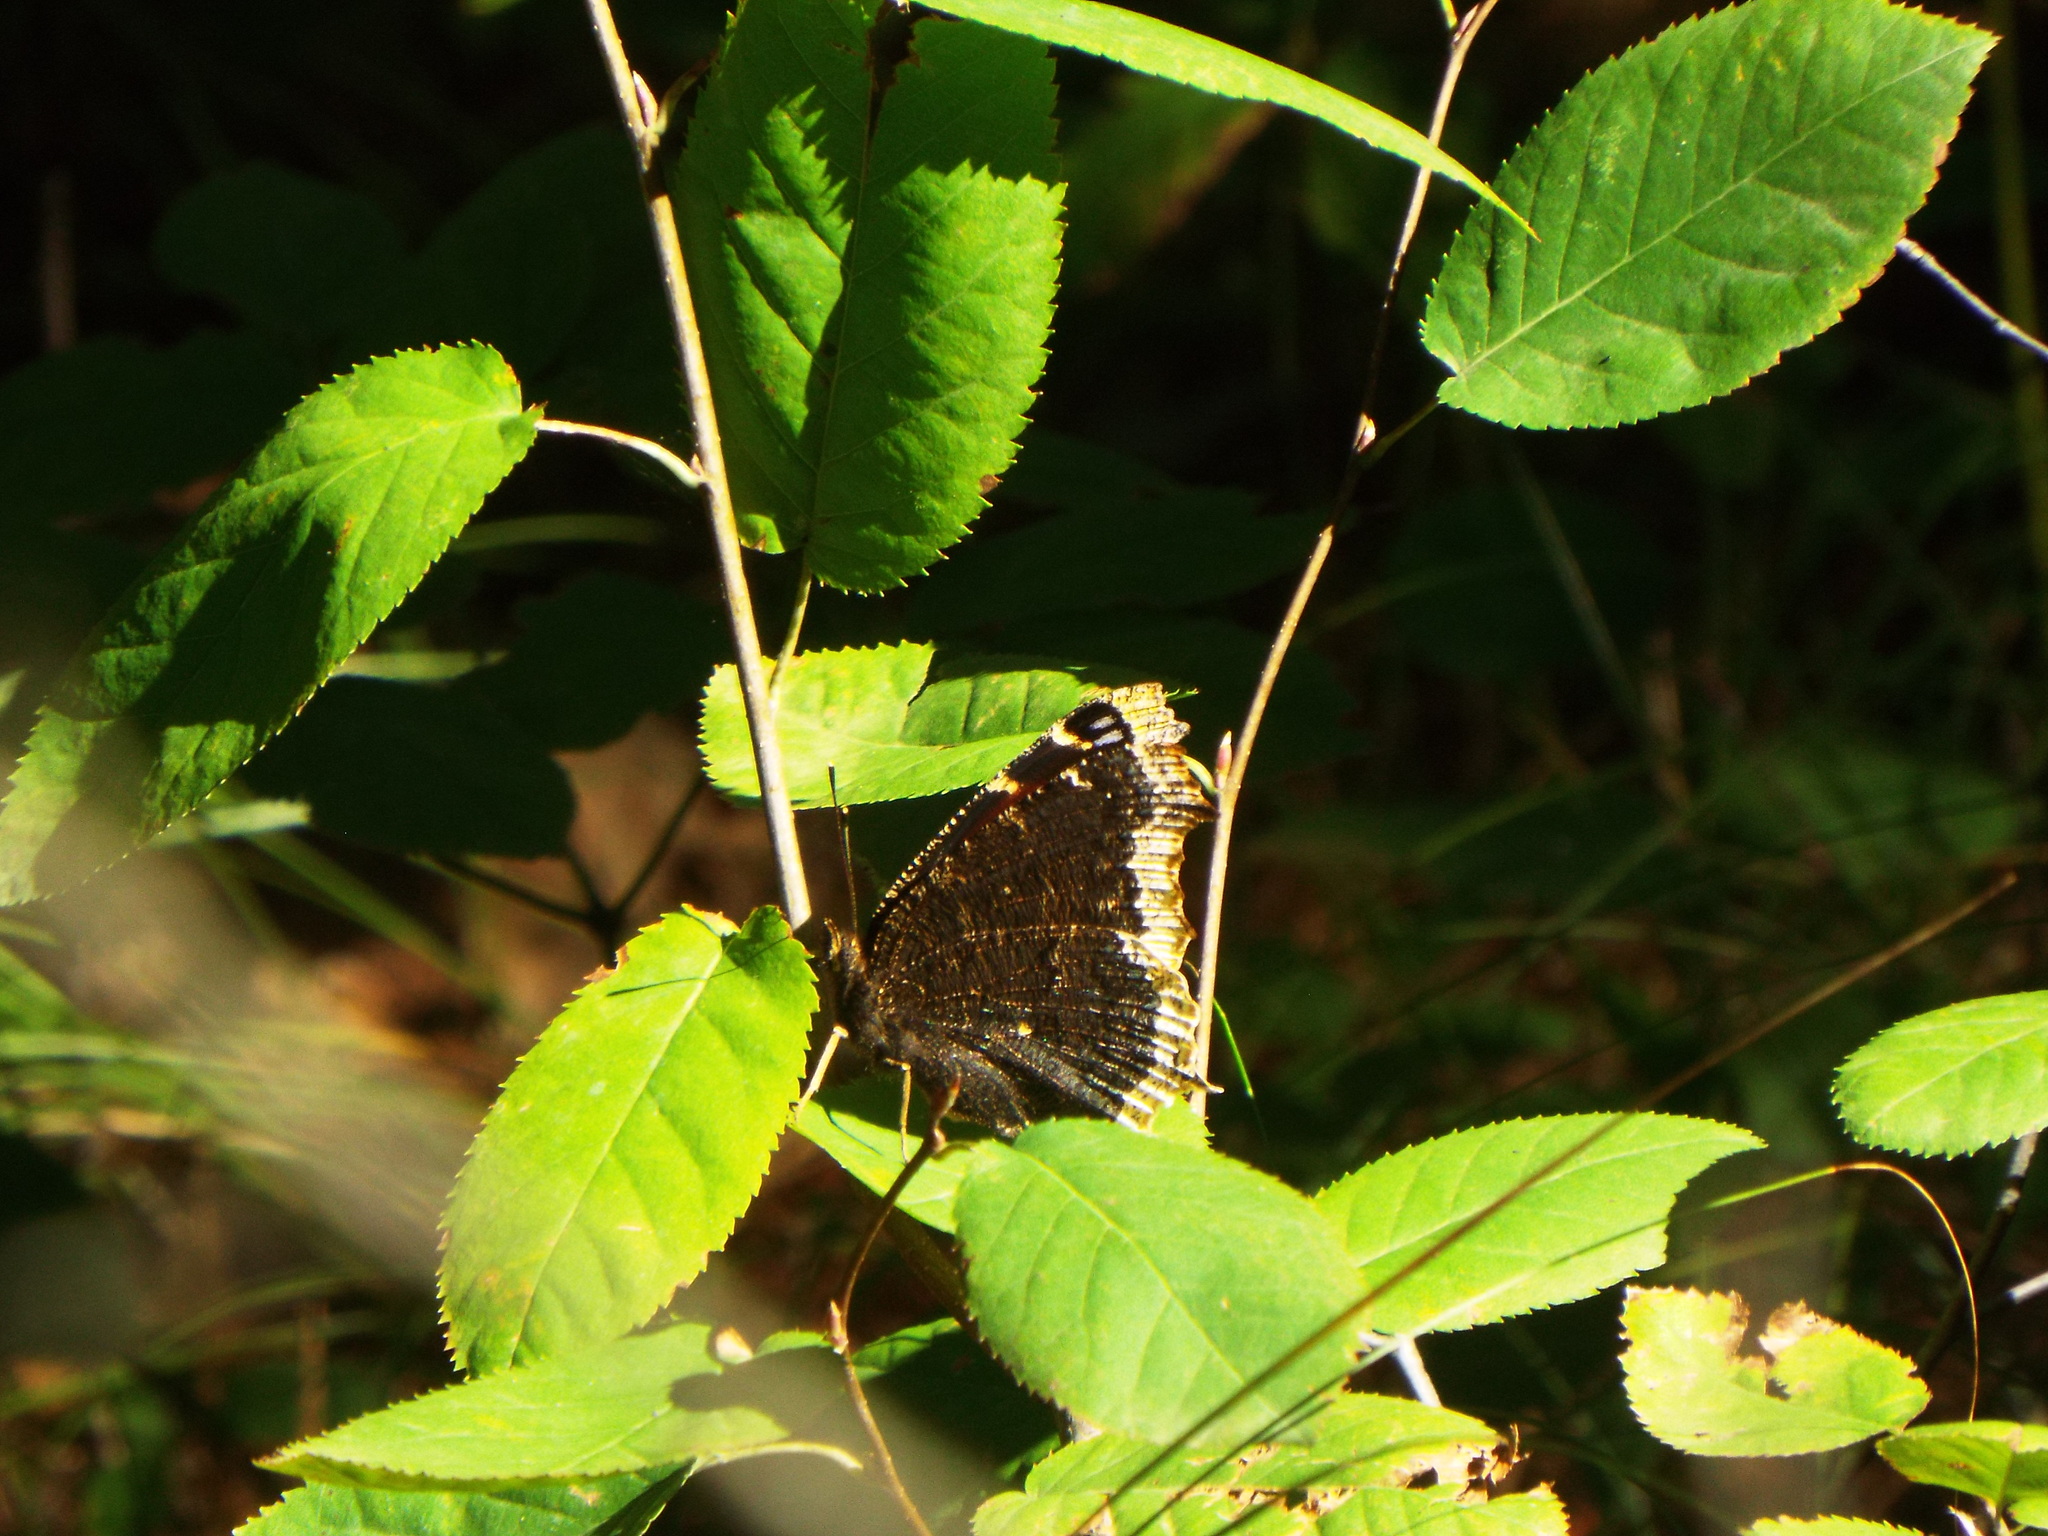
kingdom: Animalia
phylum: Arthropoda
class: Insecta
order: Lepidoptera
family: Nymphalidae
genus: Nymphalis
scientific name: Nymphalis antiopa
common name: Camberwell beauty
